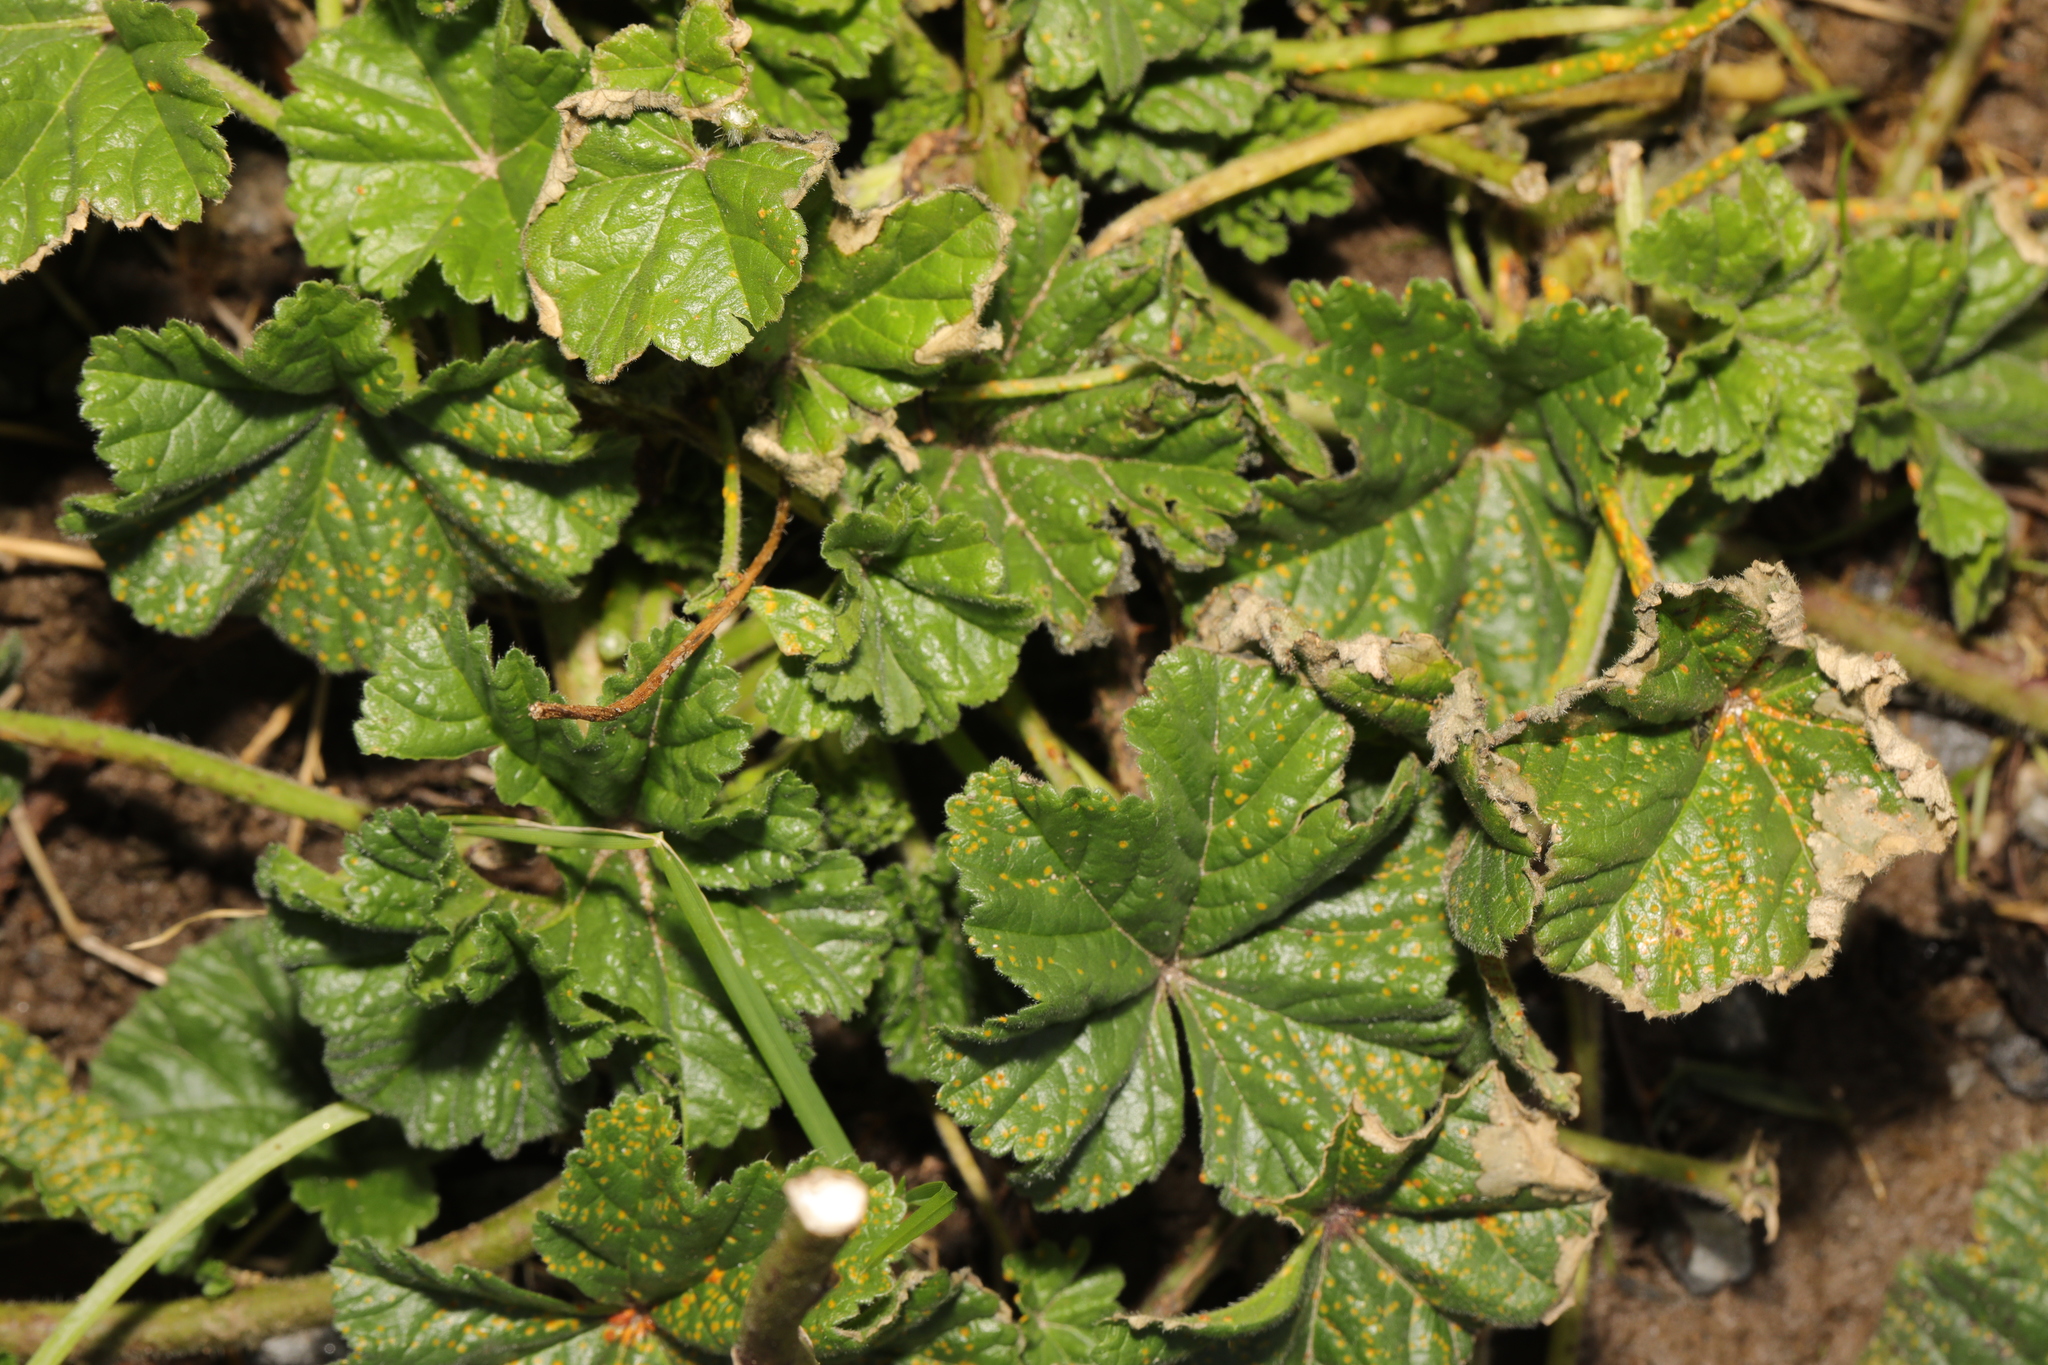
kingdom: Plantae
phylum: Tracheophyta
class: Magnoliopsida
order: Malvales
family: Malvaceae
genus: Malva
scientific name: Malva sylvestris
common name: Common mallow
